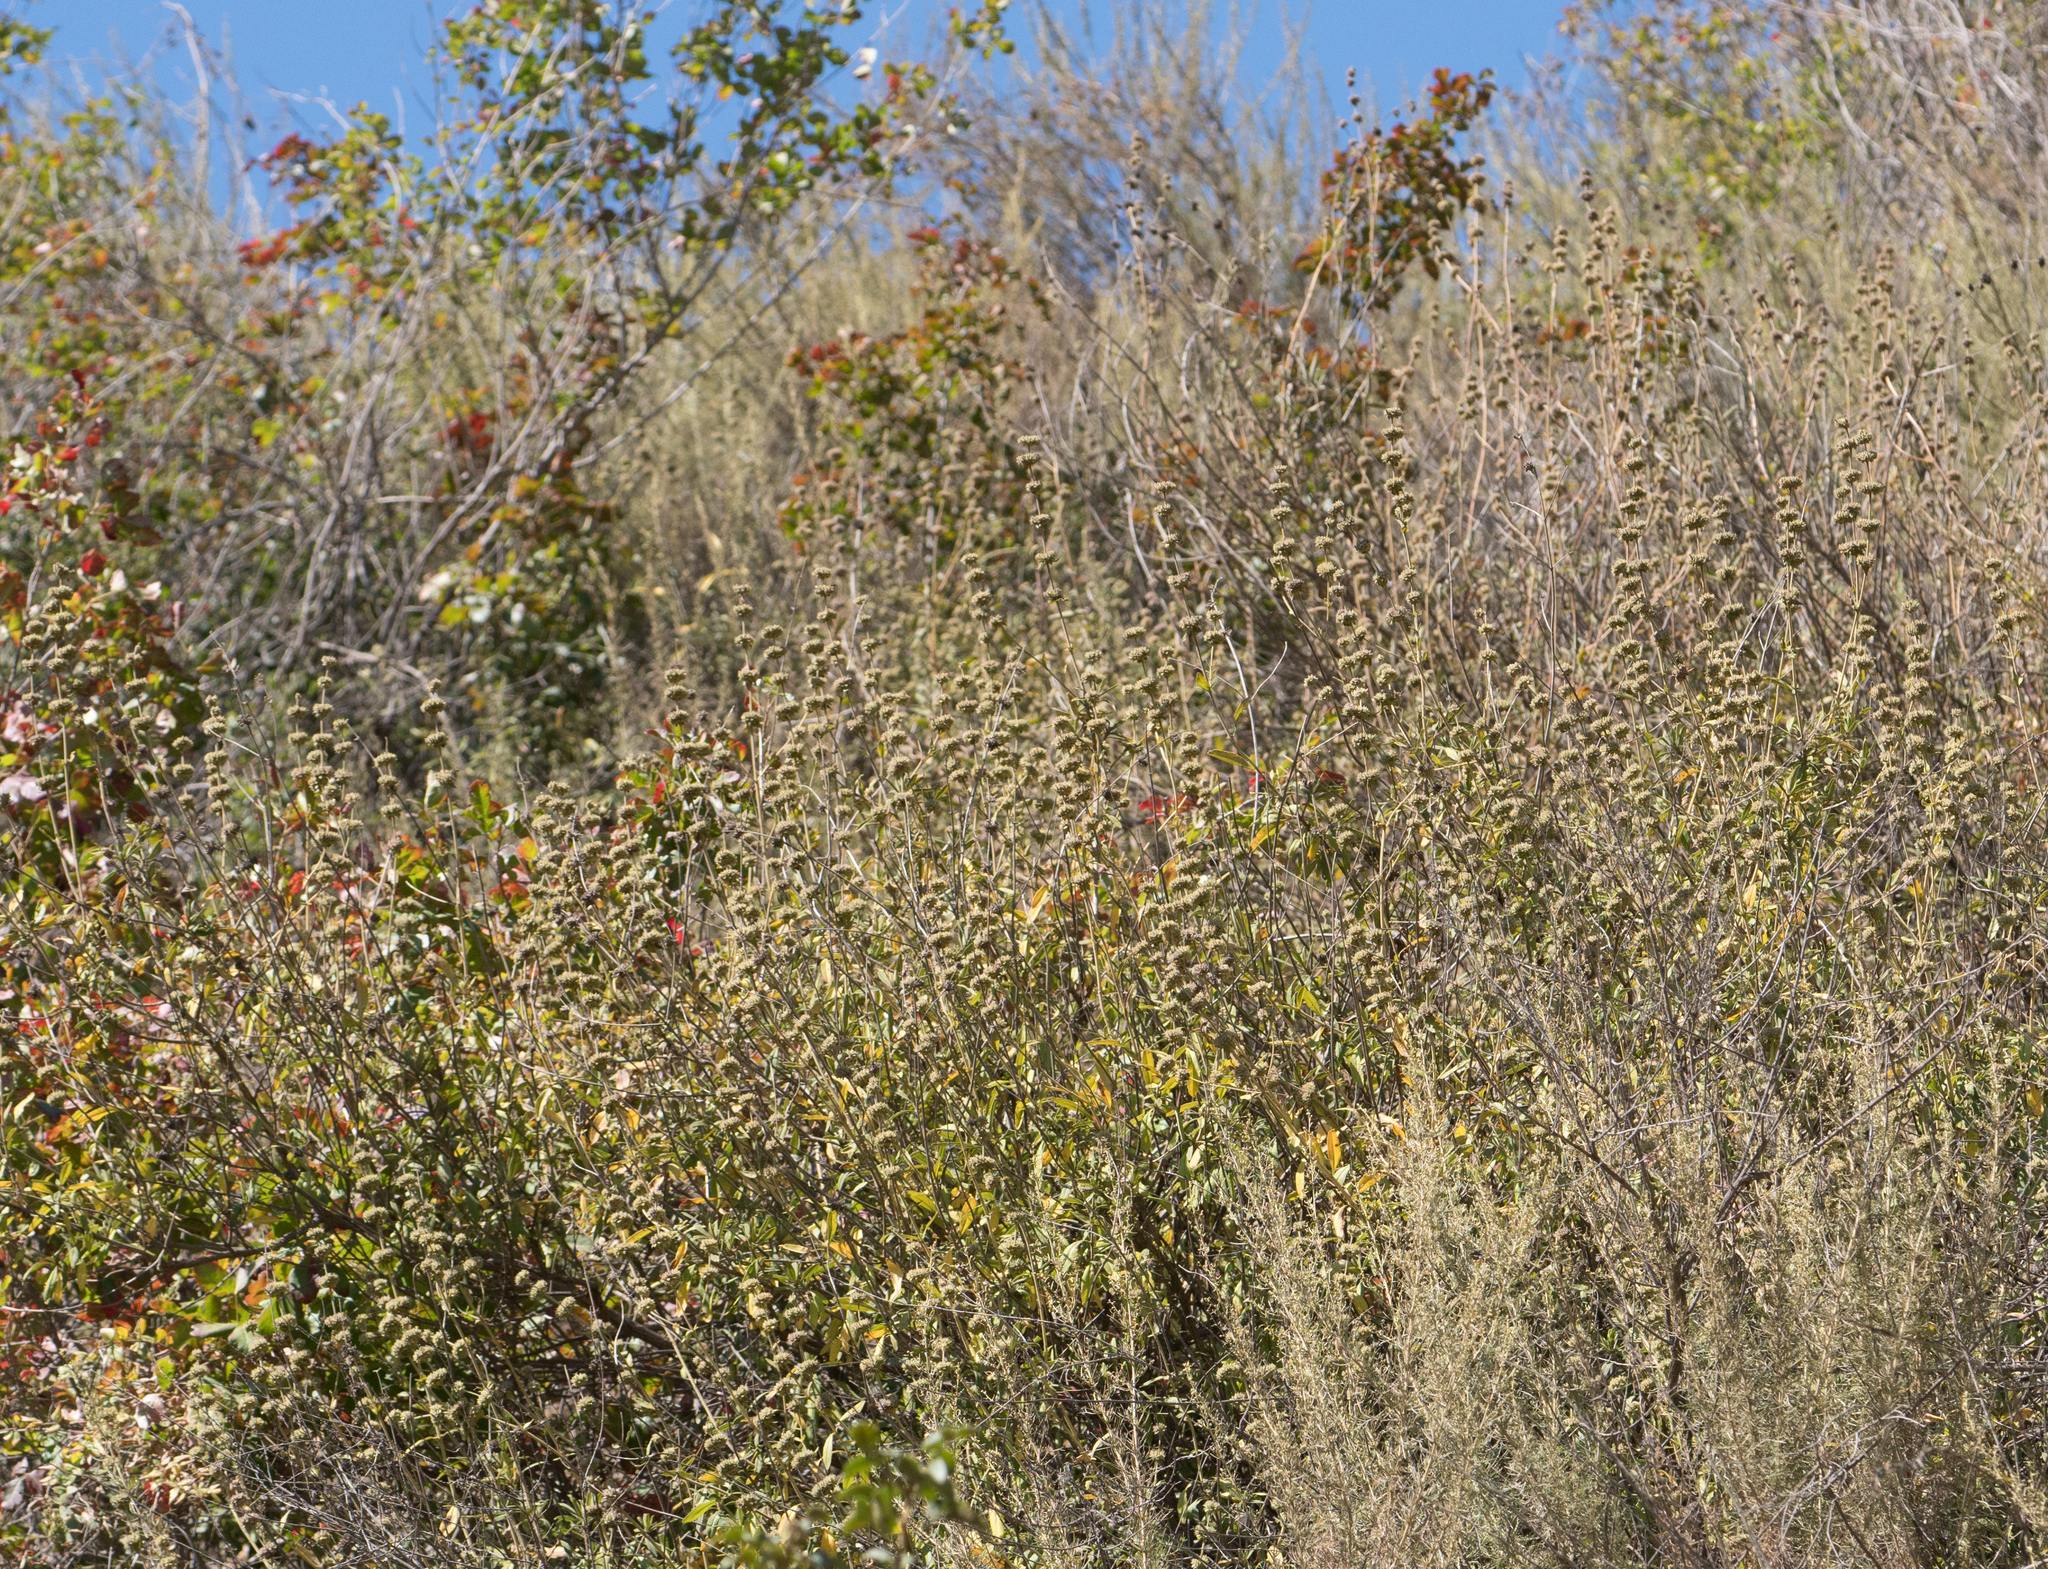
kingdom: Plantae
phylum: Tracheophyta
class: Magnoliopsida
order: Lamiales
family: Lamiaceae
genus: Salvia
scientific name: Salvia mellifera
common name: Black sage
